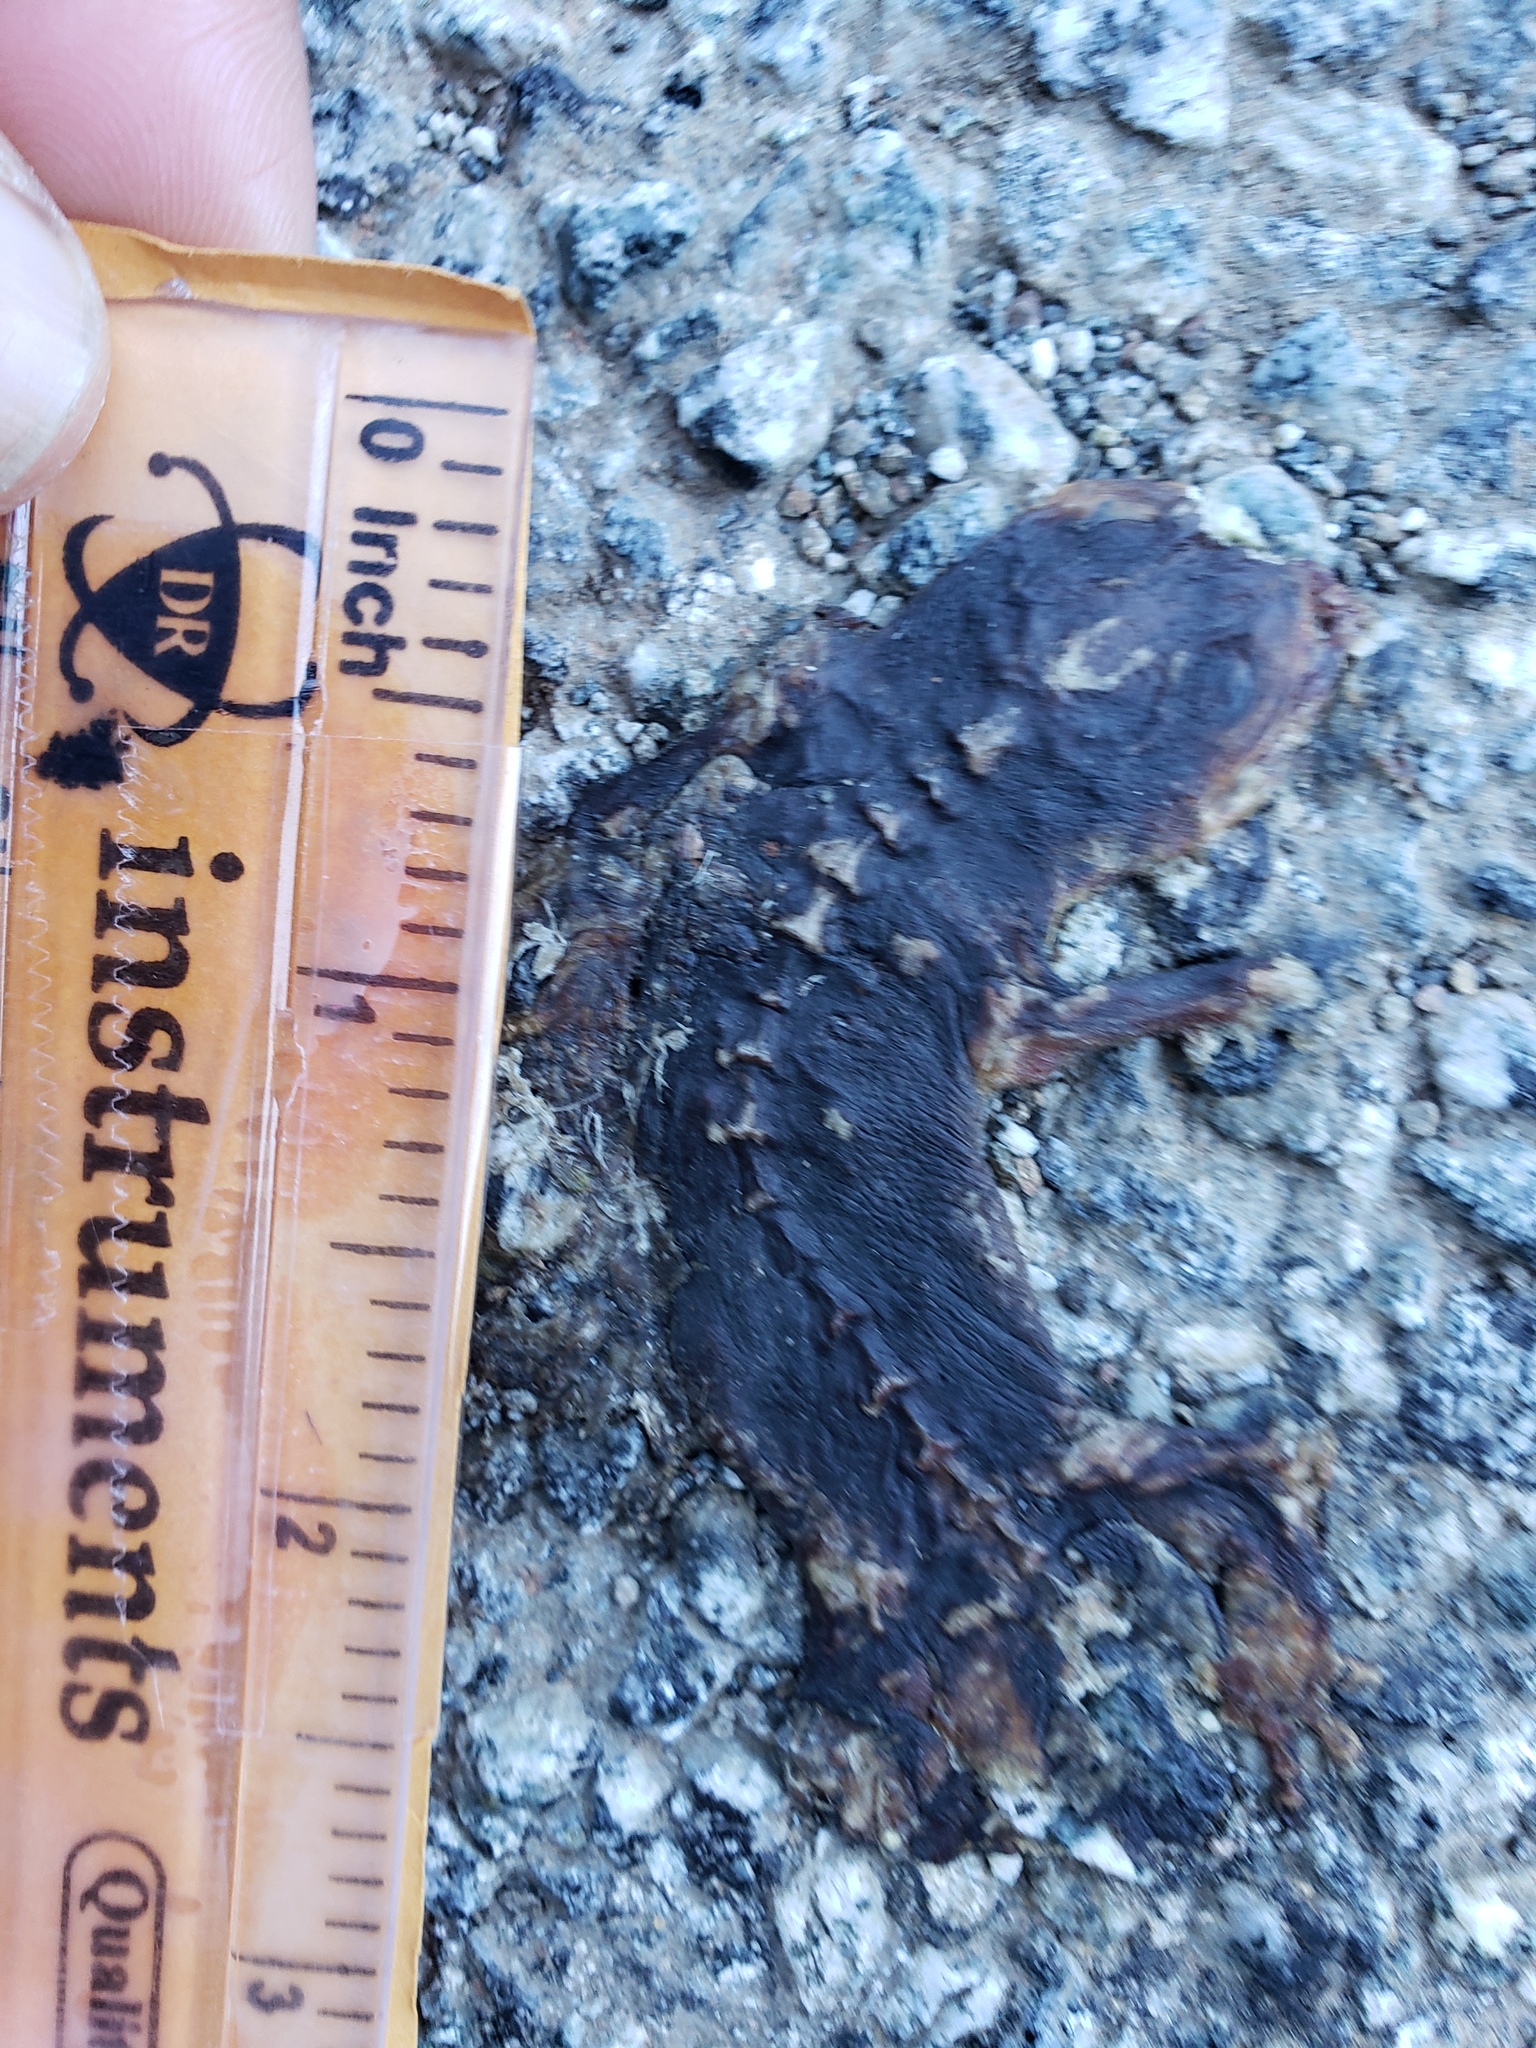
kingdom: Animalia
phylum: Chordata
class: Amphibia
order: Caudata
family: Salamandridae
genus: Taricha
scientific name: Taricha
